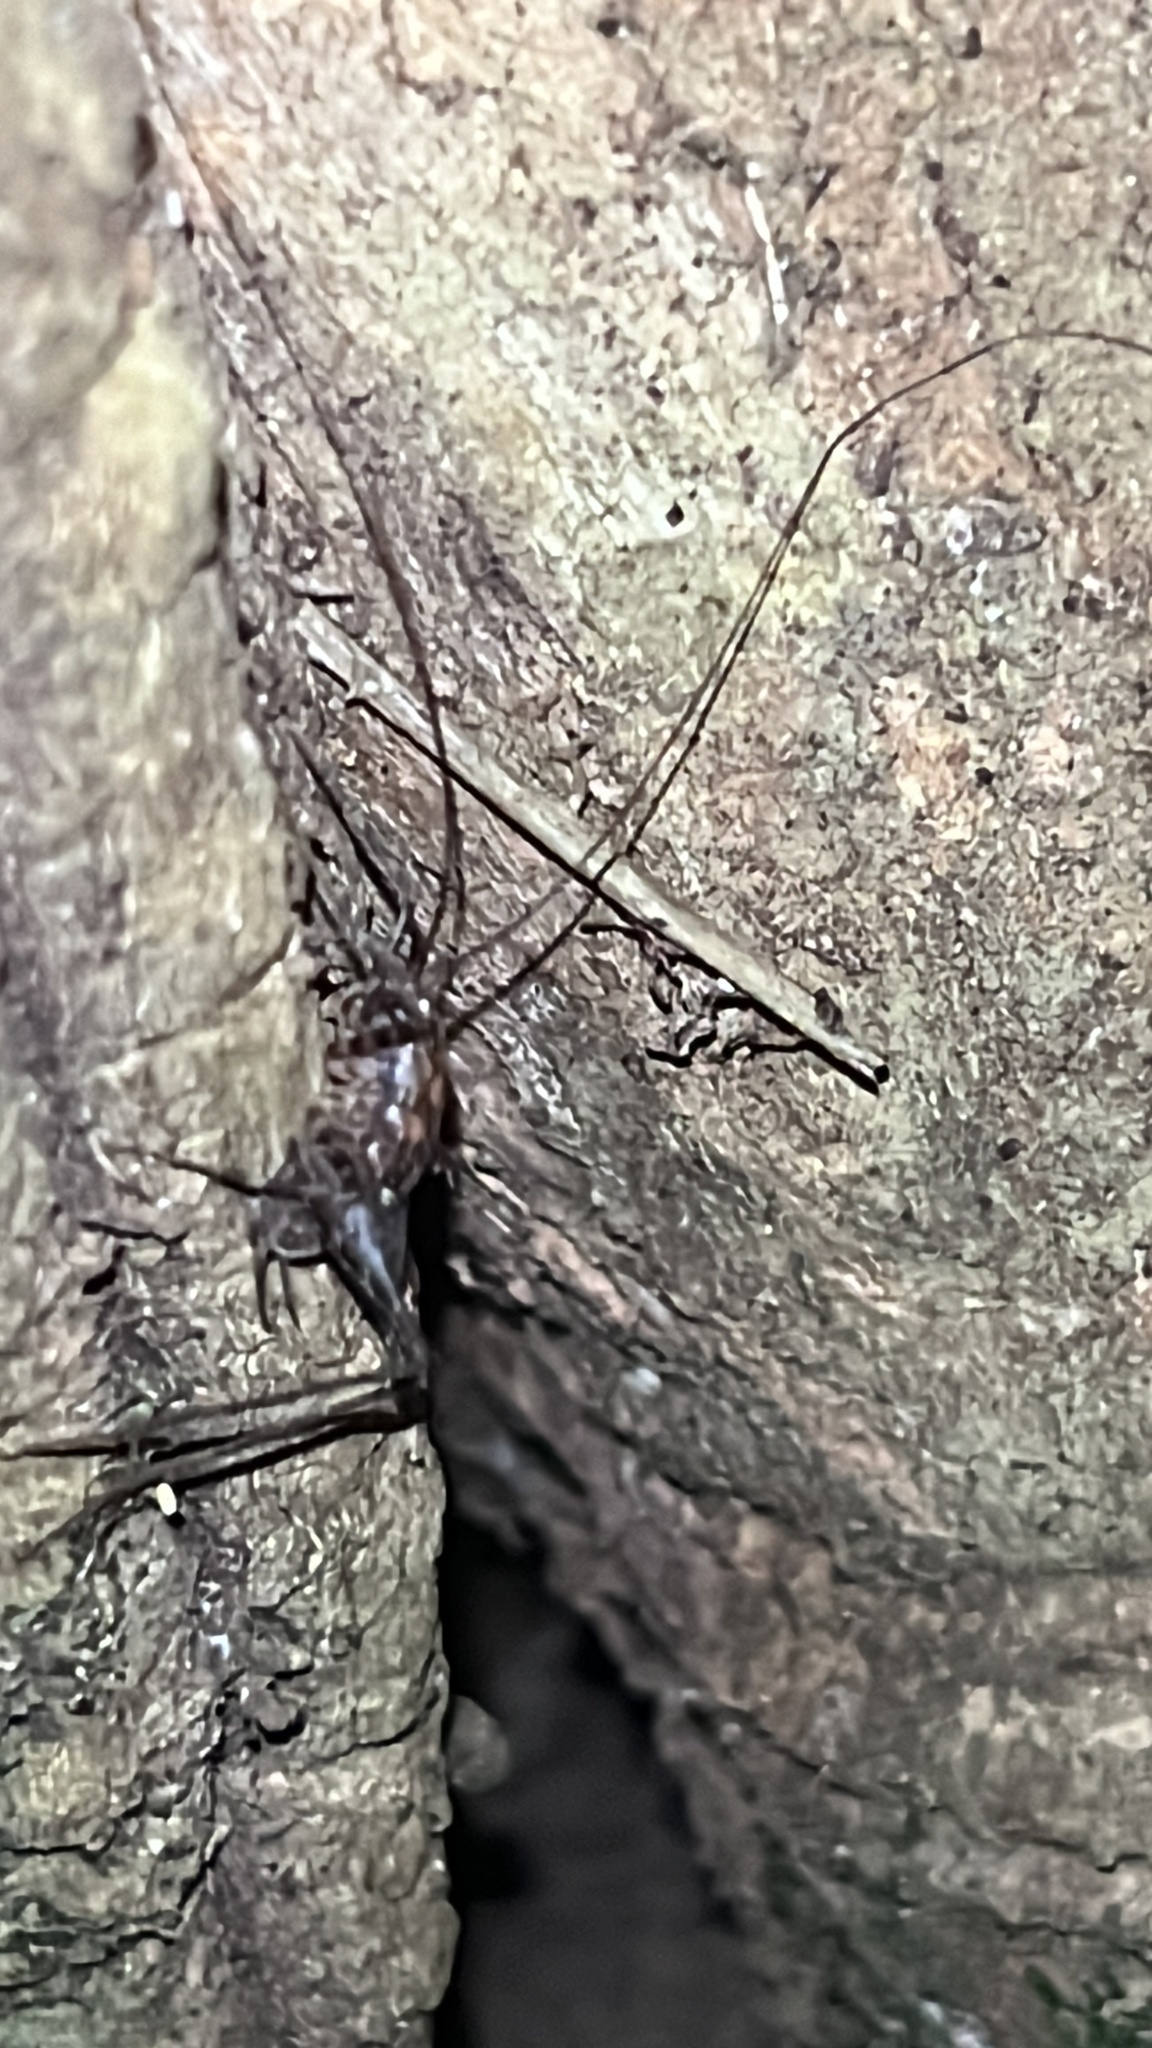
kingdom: Animalia
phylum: Arthropoda
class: Insecta
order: Orthoptera
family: Rhaphidophoridae
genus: Pleioplectron
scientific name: Pleioplectron hudsoni
